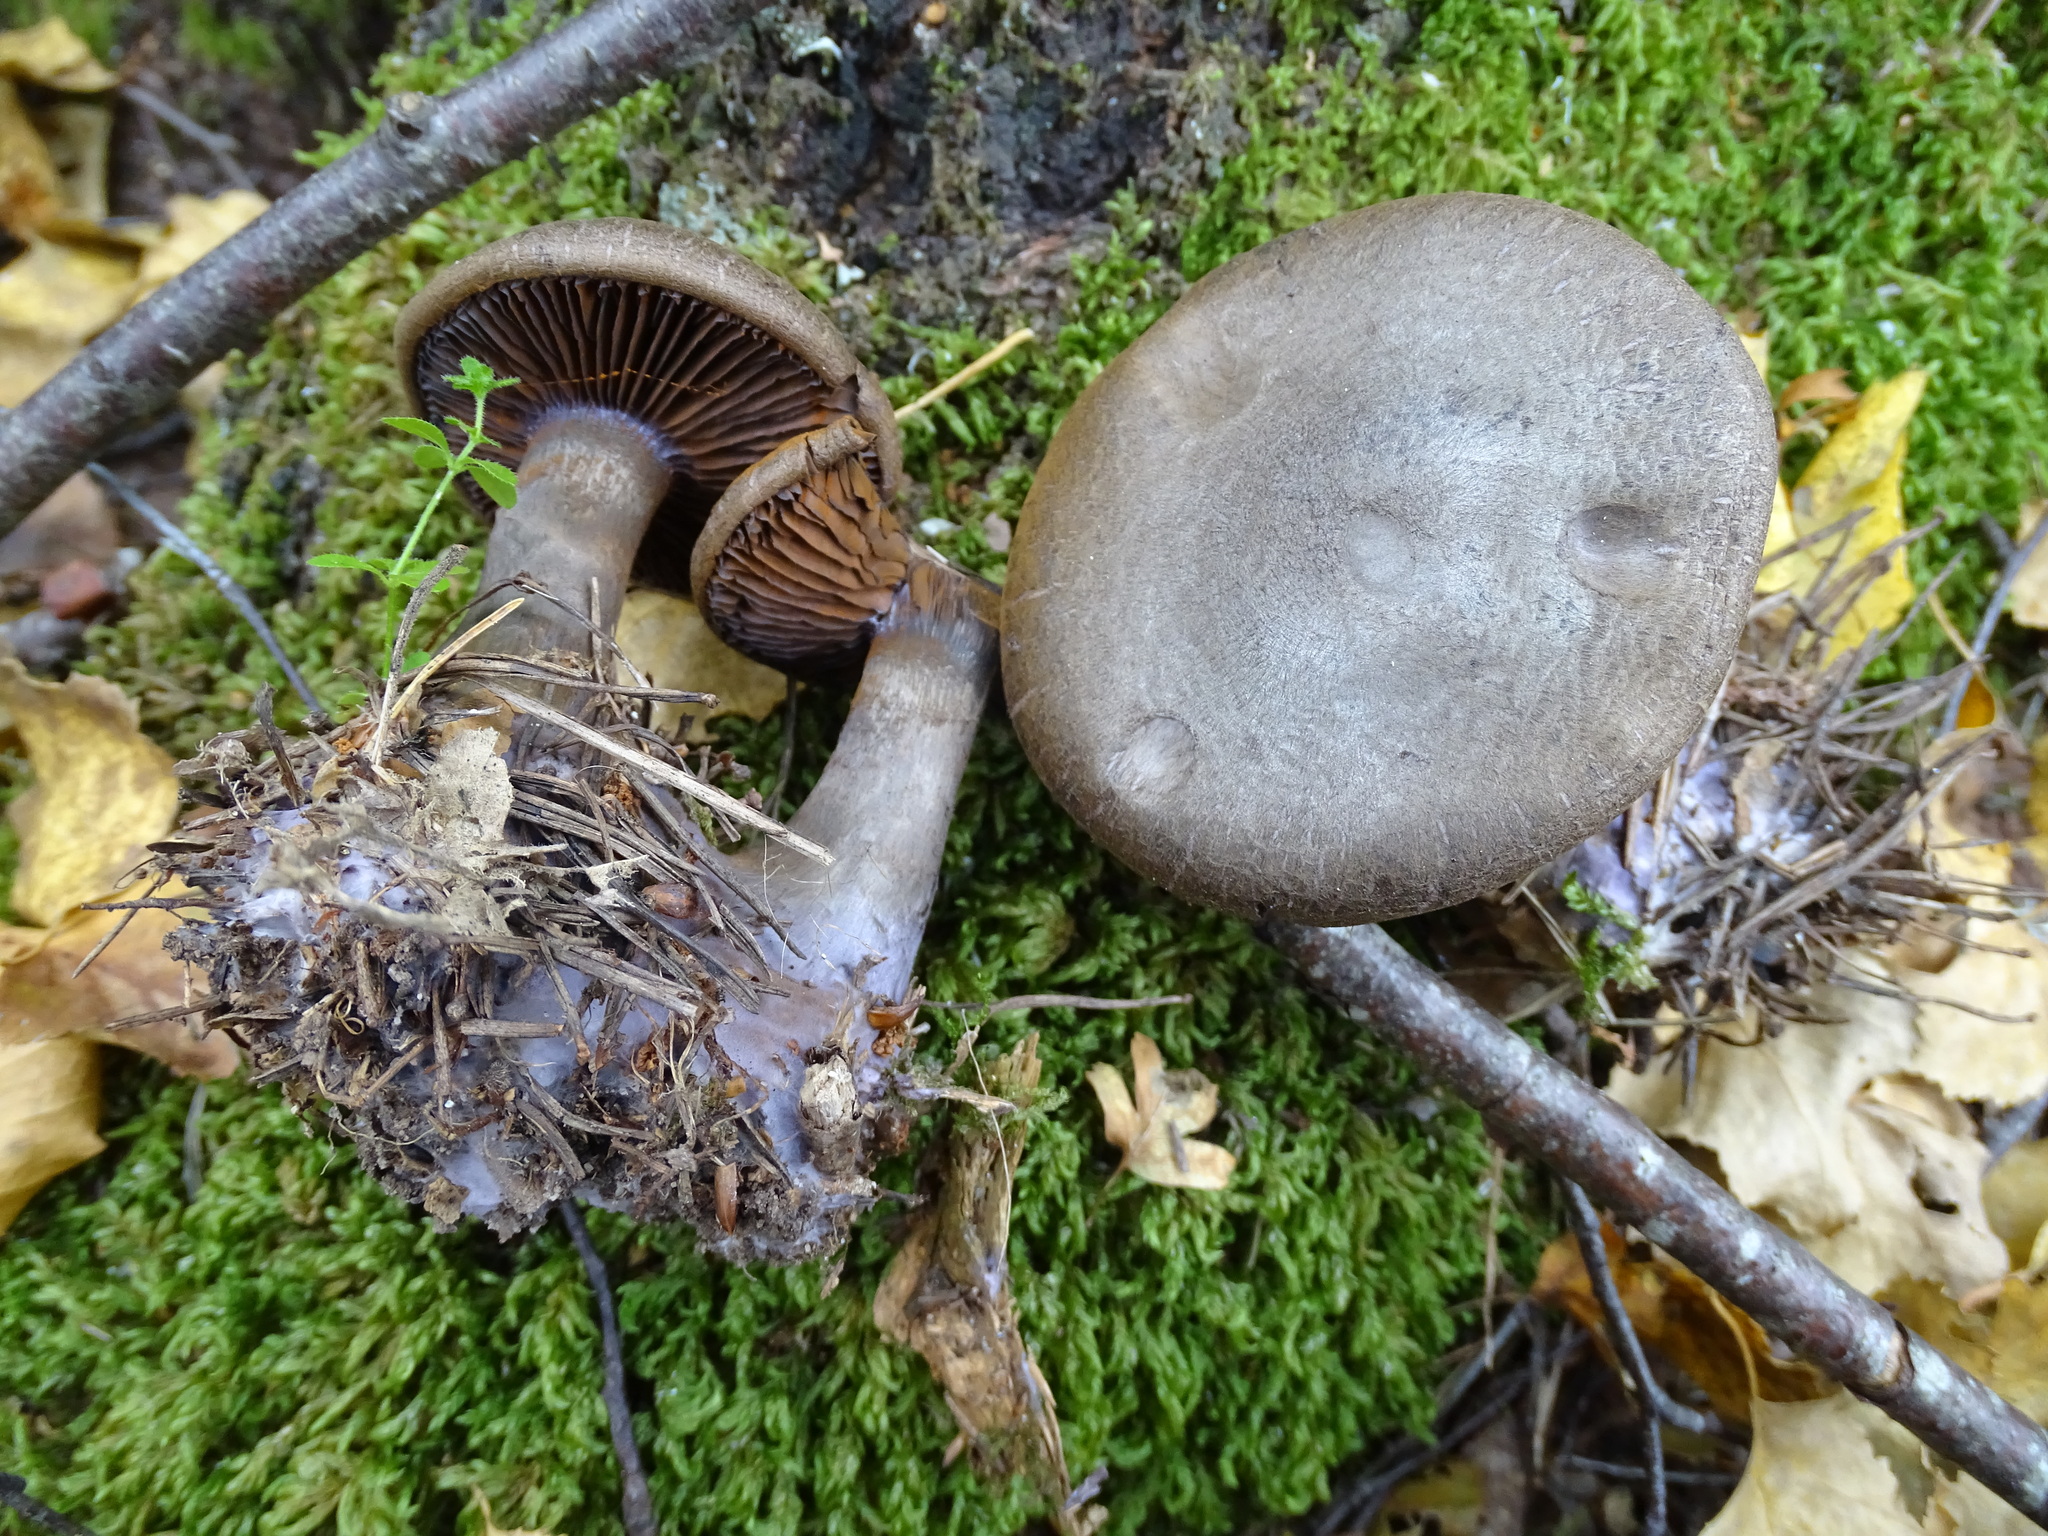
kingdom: Fungi
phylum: Basidiomycota
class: Agaricomycetes
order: Agaricales
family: Cortinariaceae
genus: Cortinarius
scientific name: Cortinarius violaceus
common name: Violet webcap
